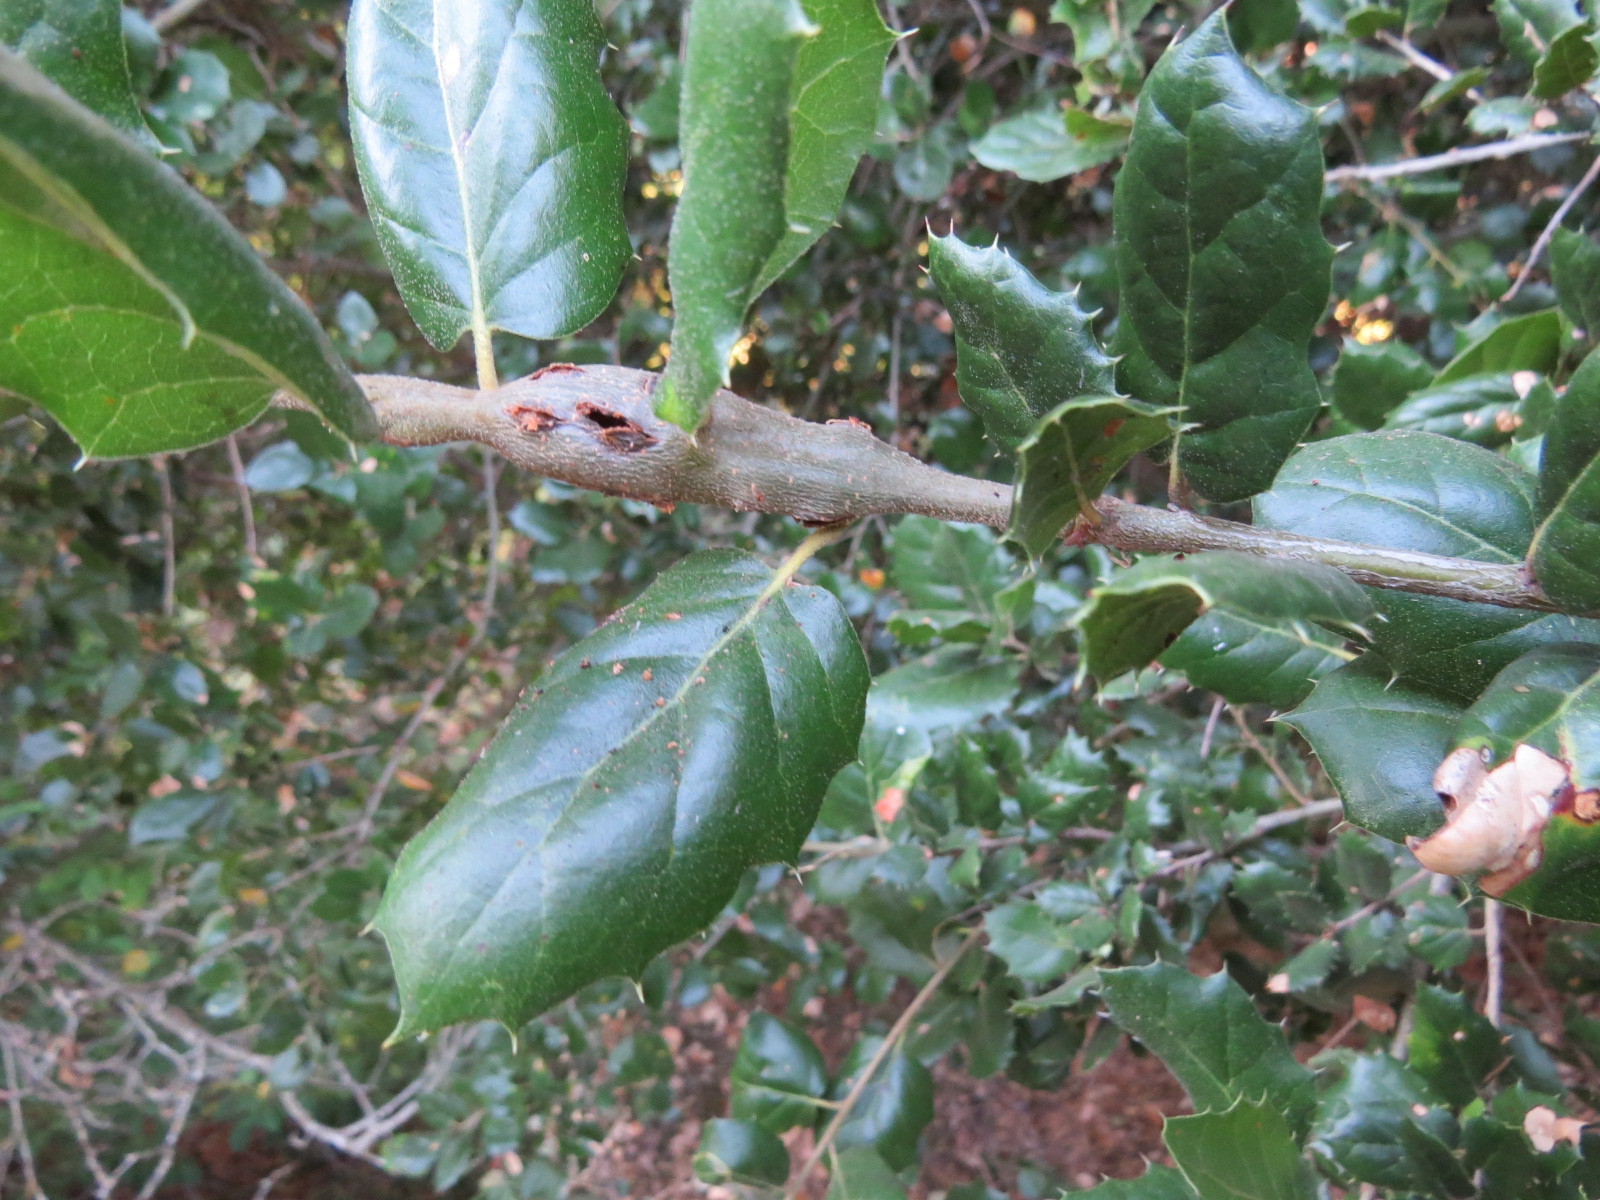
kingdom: Animalia
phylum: Arthropoda
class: Insecta
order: Hymenoptera
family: Cynipidae
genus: Callirhytis
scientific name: Callirhytis
